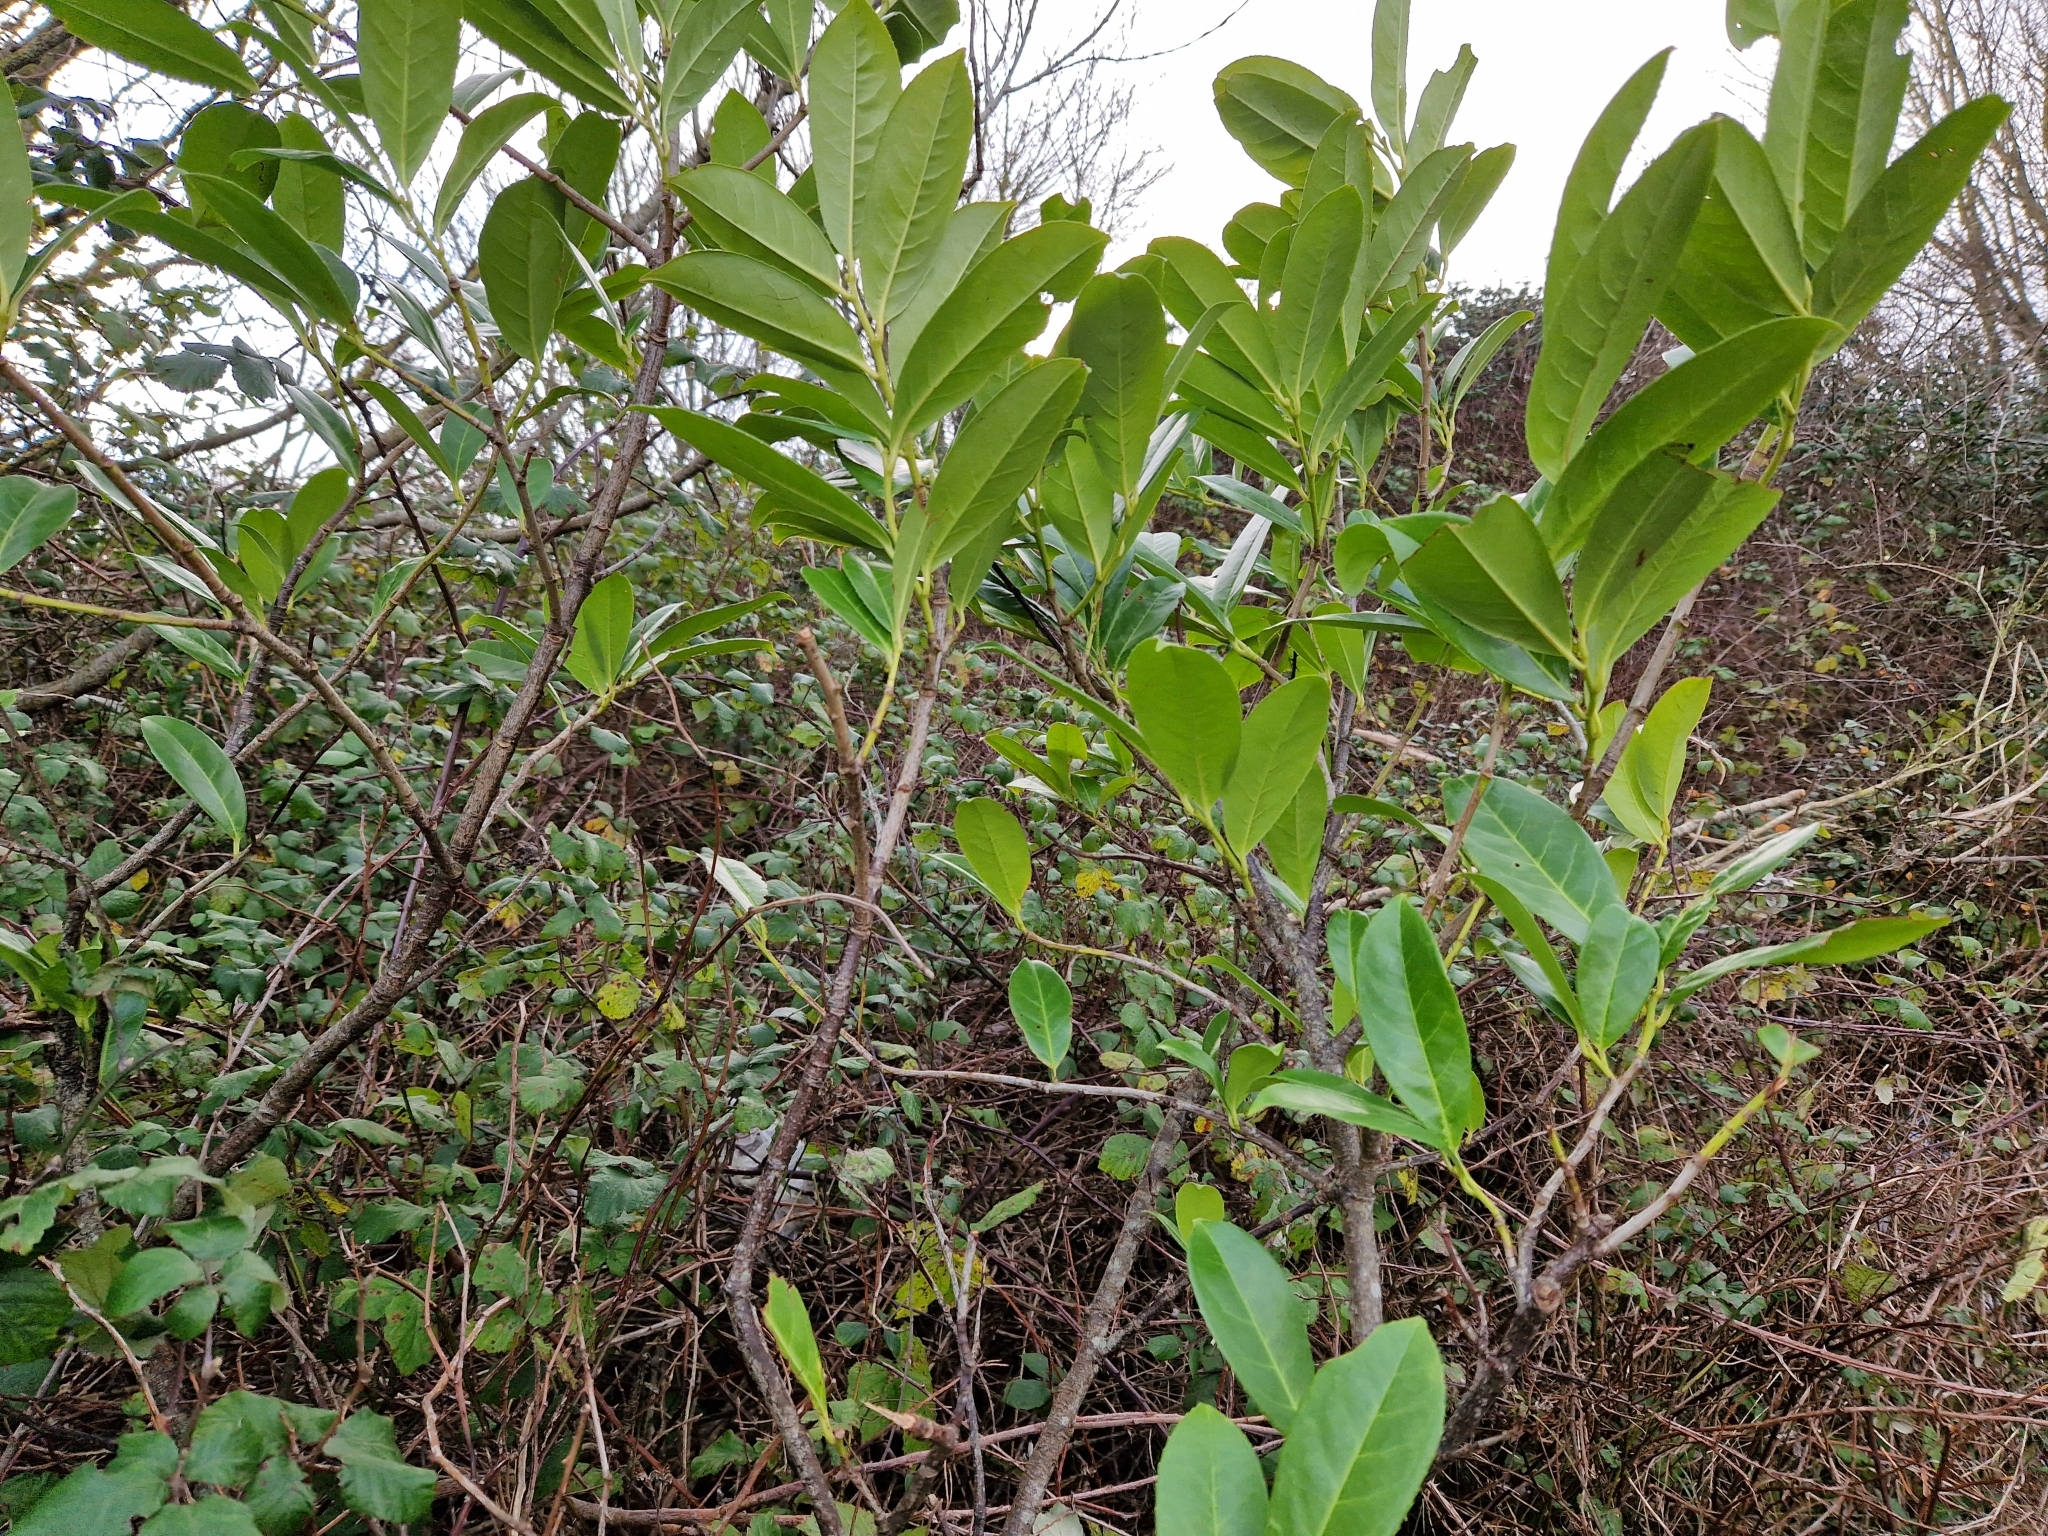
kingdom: Plantae
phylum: Tracheophyta
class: Magnoliopsida
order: Rosales
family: Rosaceae
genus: Prunus
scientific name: Prunus laurocerasus
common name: Cherry laurel
